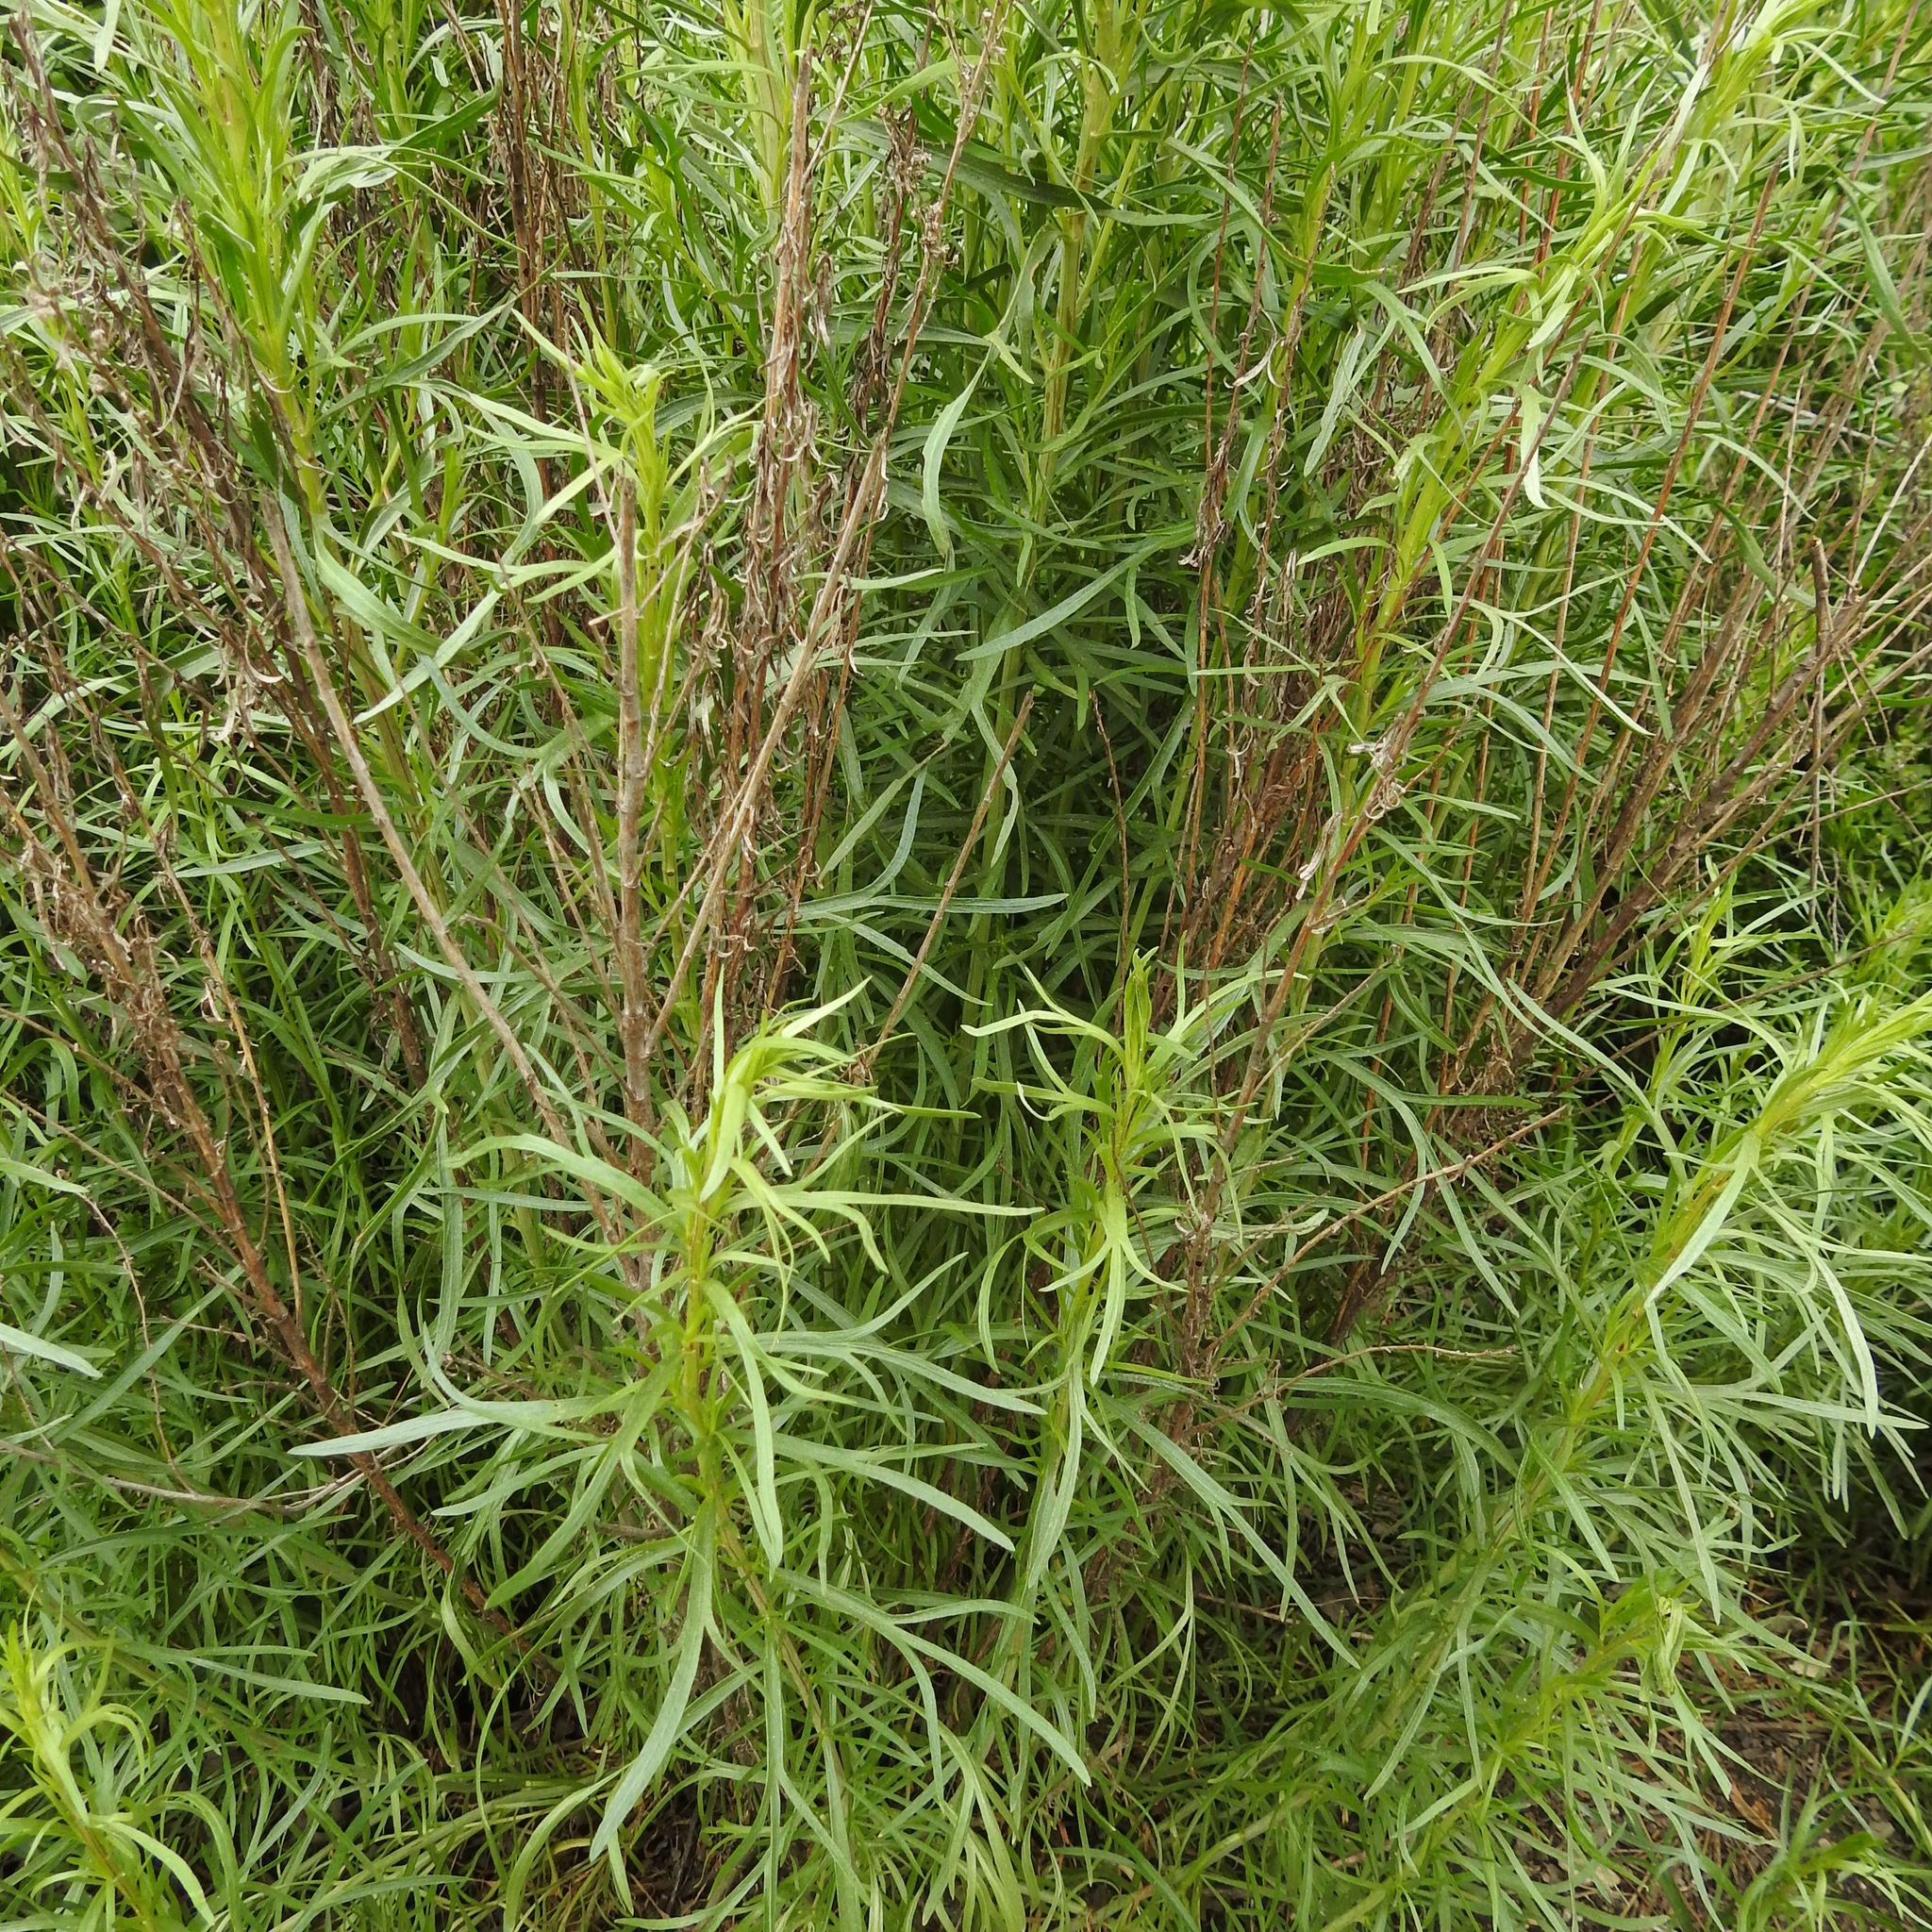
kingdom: Plantae
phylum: Tracheophyta
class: Magnoliopsida
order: Asterales
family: Asteraceae
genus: Artemisia
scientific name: Artemisia dracunculus
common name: Tarragon
